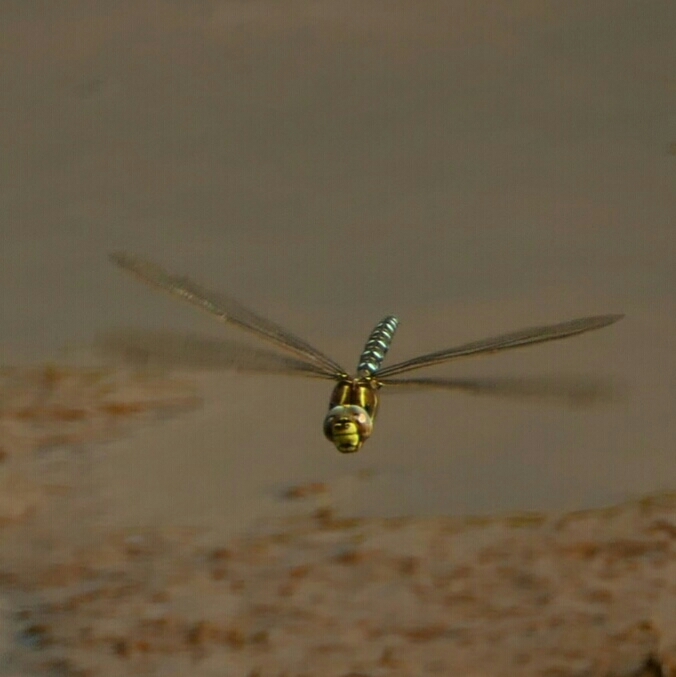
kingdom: Animalia
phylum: Arthropoda
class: Insecta
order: Odonata
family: Aeshnidae
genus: Aeshna
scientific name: Aeshna juncea
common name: Moorland hawker
